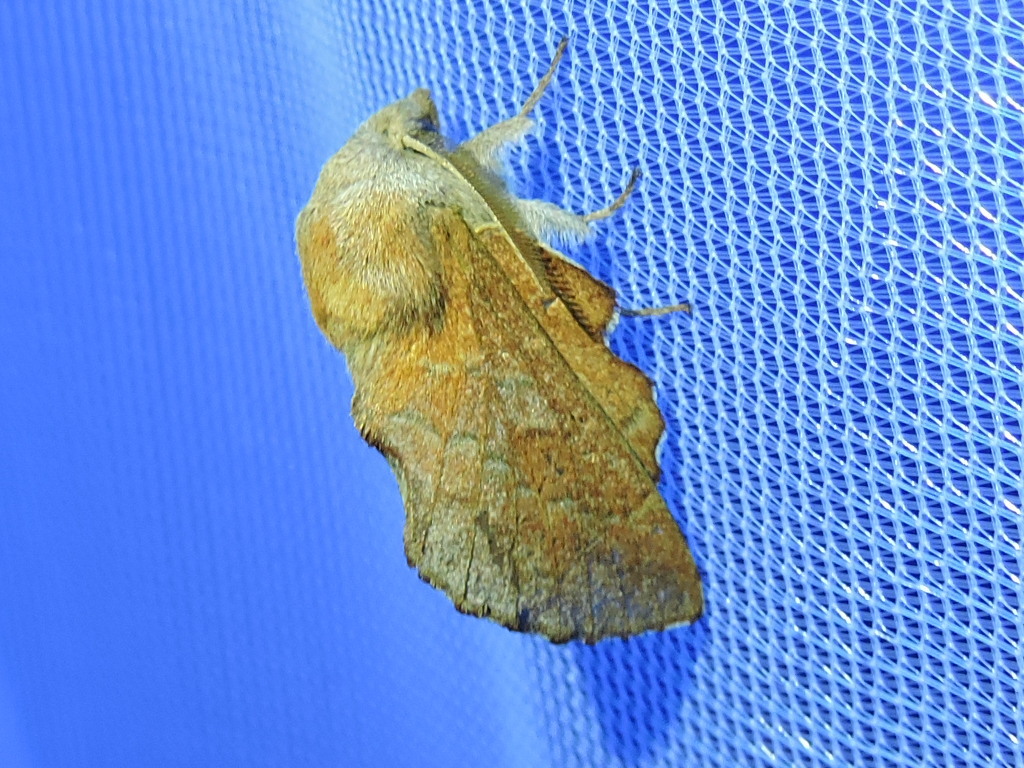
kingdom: Animalia
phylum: Arthropoda
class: Insecta
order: Lepidoptera
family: Lasiocampidae
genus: Phyllodesma
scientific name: Phyllodesma americana
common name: American lappet moth
